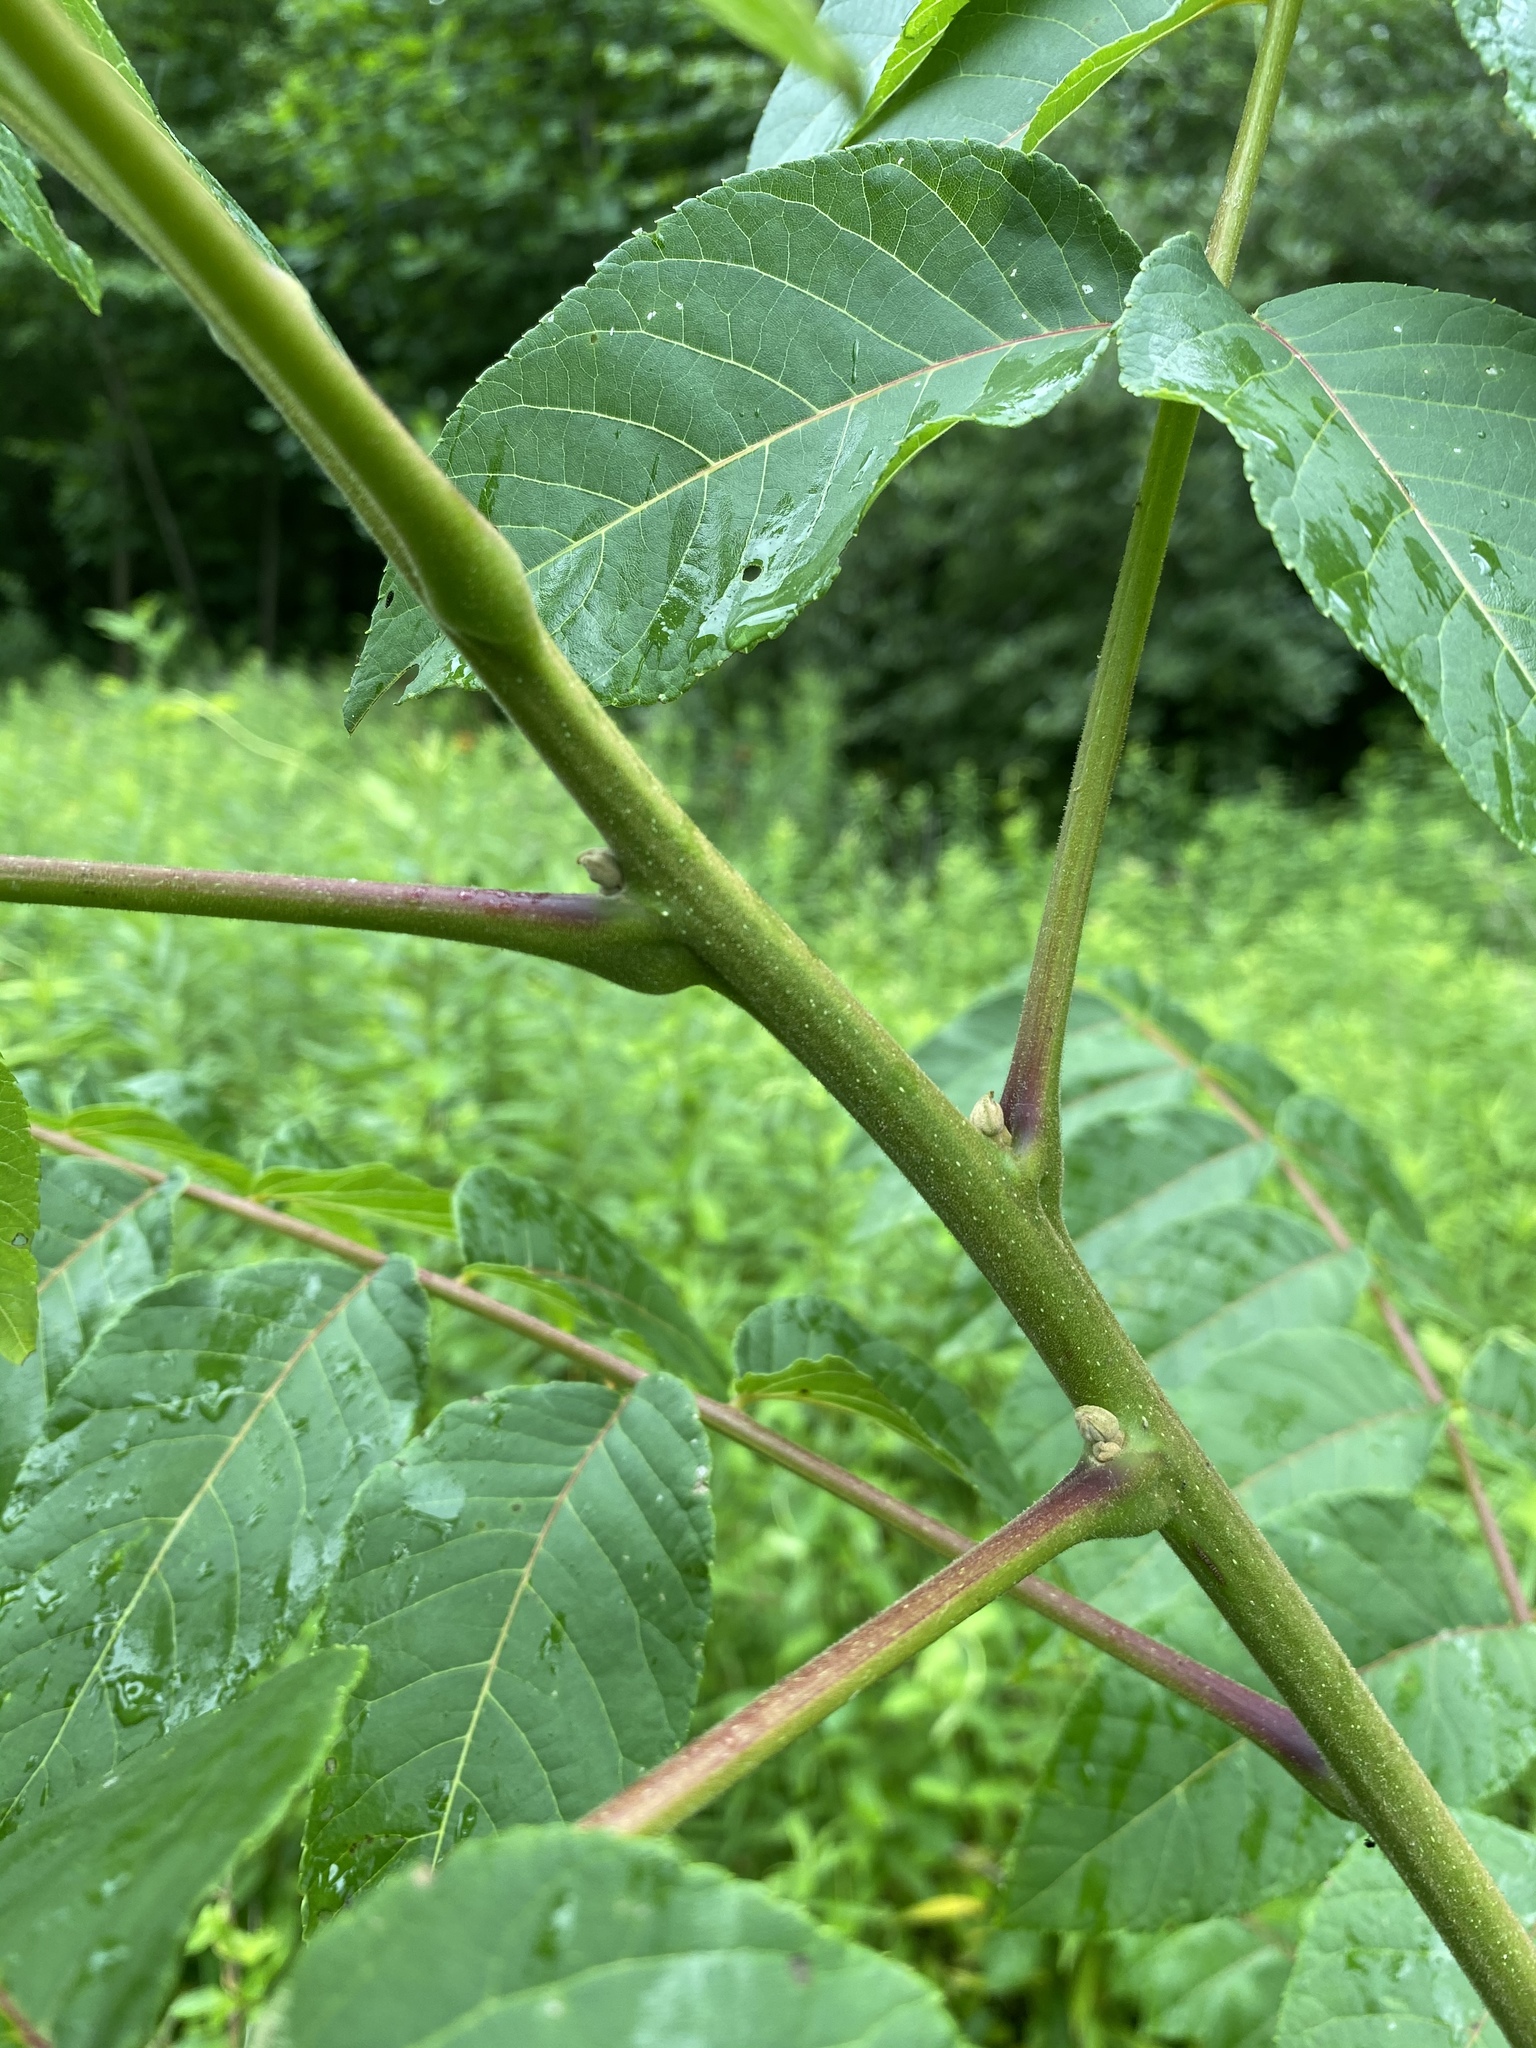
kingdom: Plantae
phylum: Tracheophyta
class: Magnoliopsida
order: Fagales
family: Juglandaceae
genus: Juglans
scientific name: Juglans cinerea
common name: Butternut
